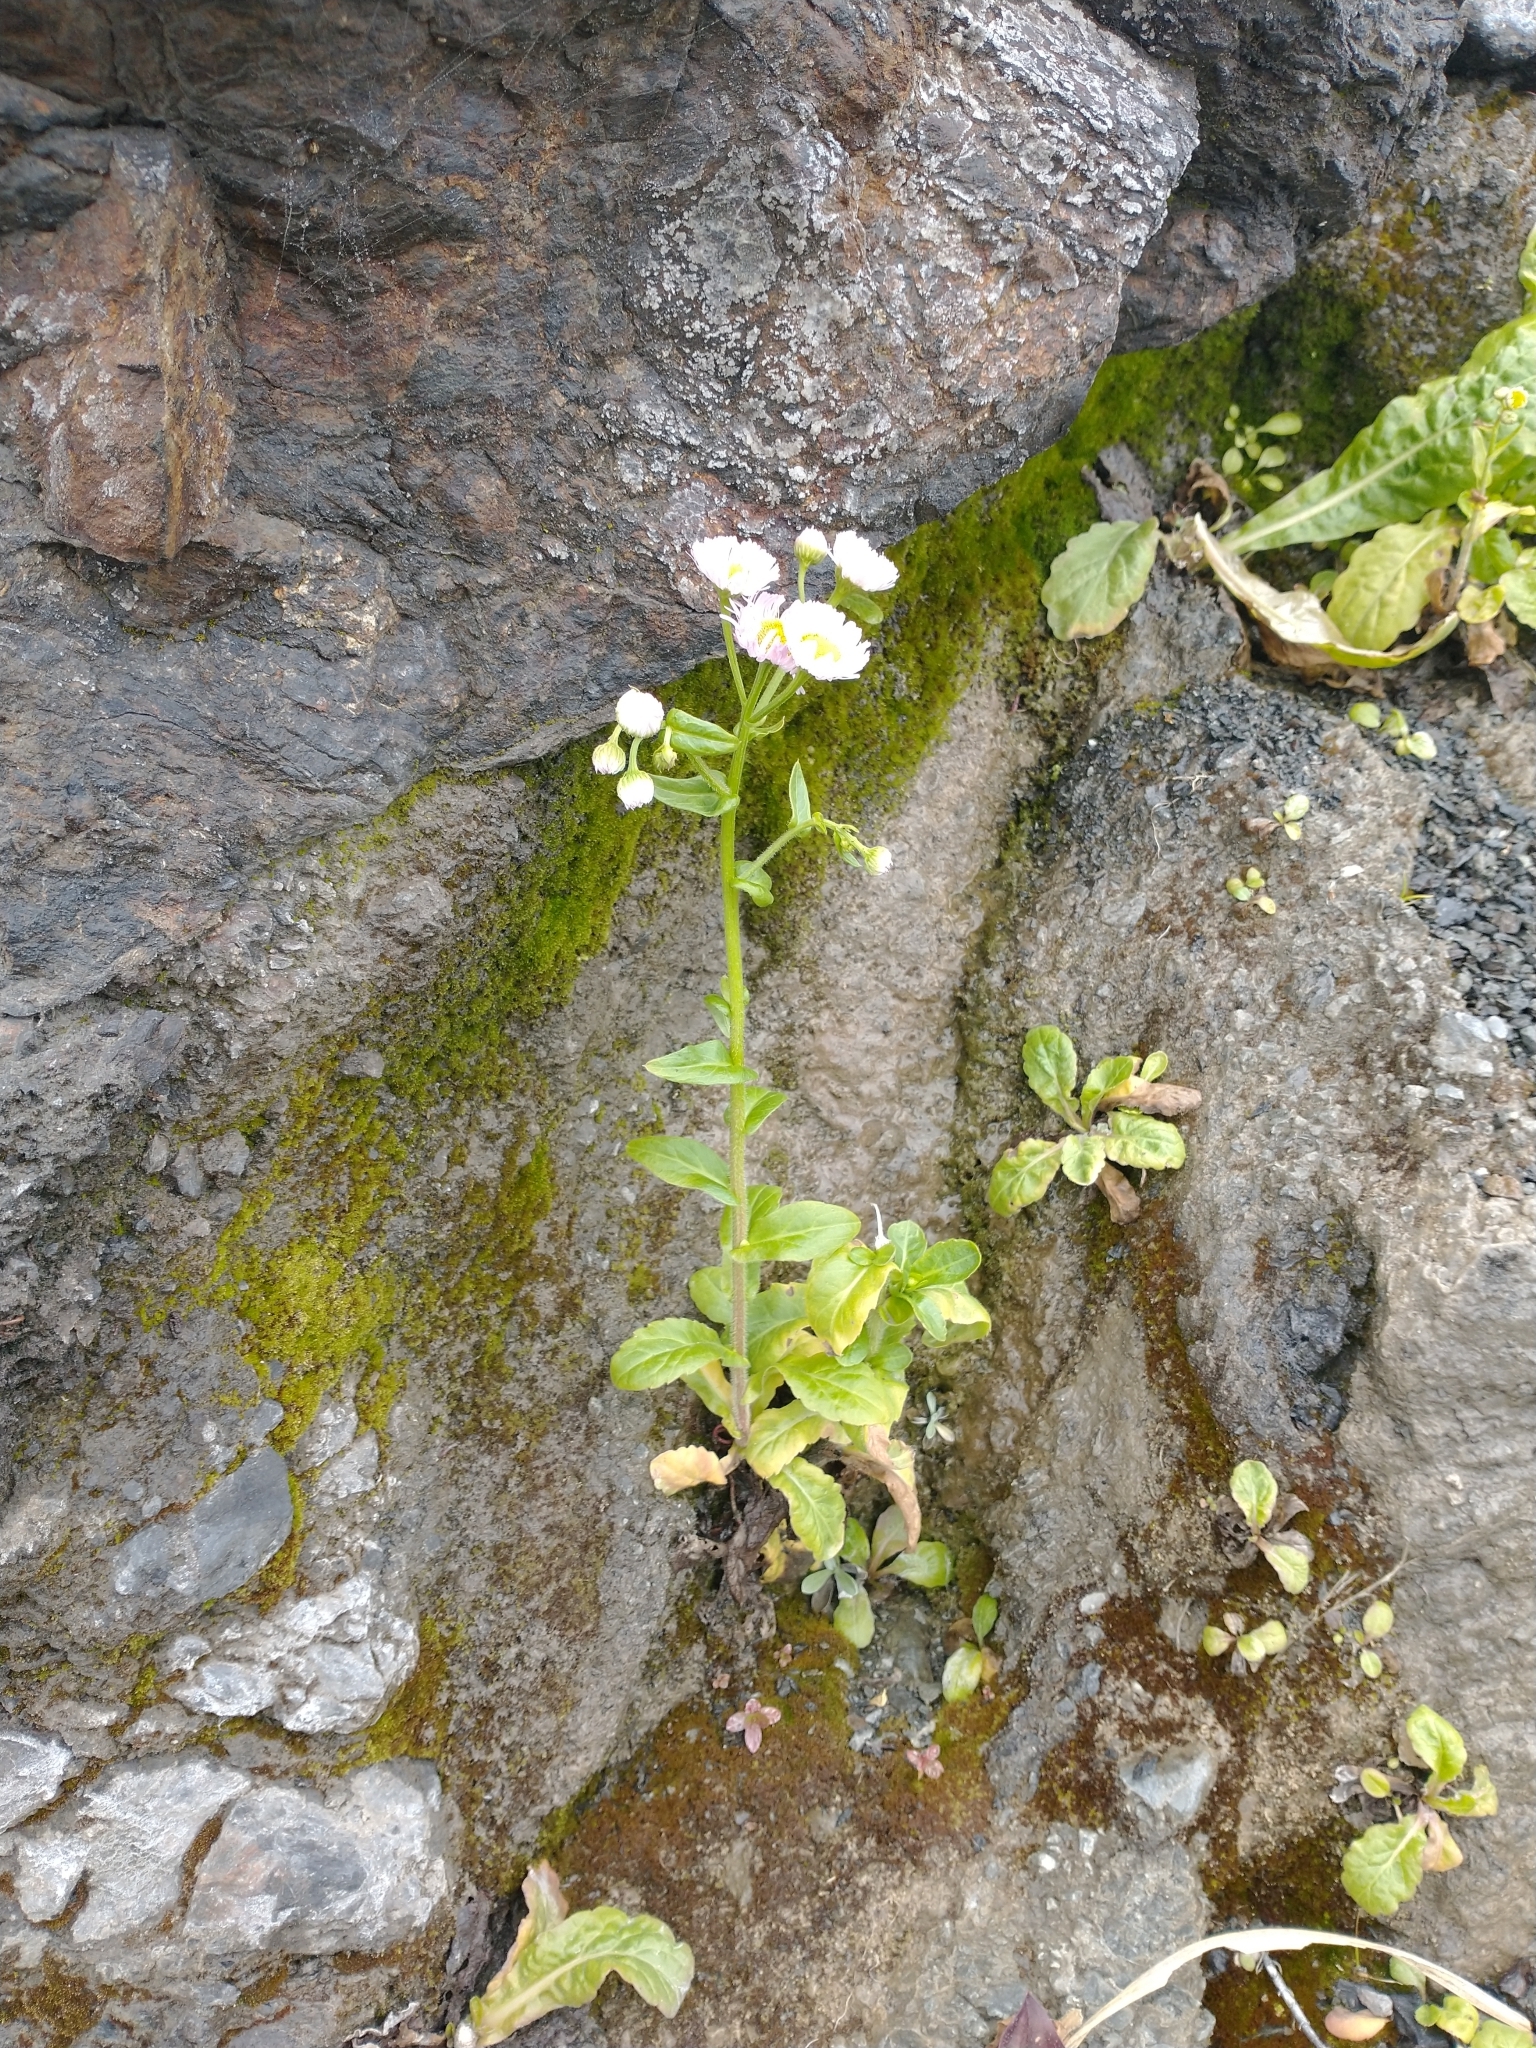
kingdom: Plantae
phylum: Tracheophyta
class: Magnoliopsida
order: Asterales
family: Asteraceae
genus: Erigeron
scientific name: Erigeron philadelphicus
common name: Robin's-plantain
